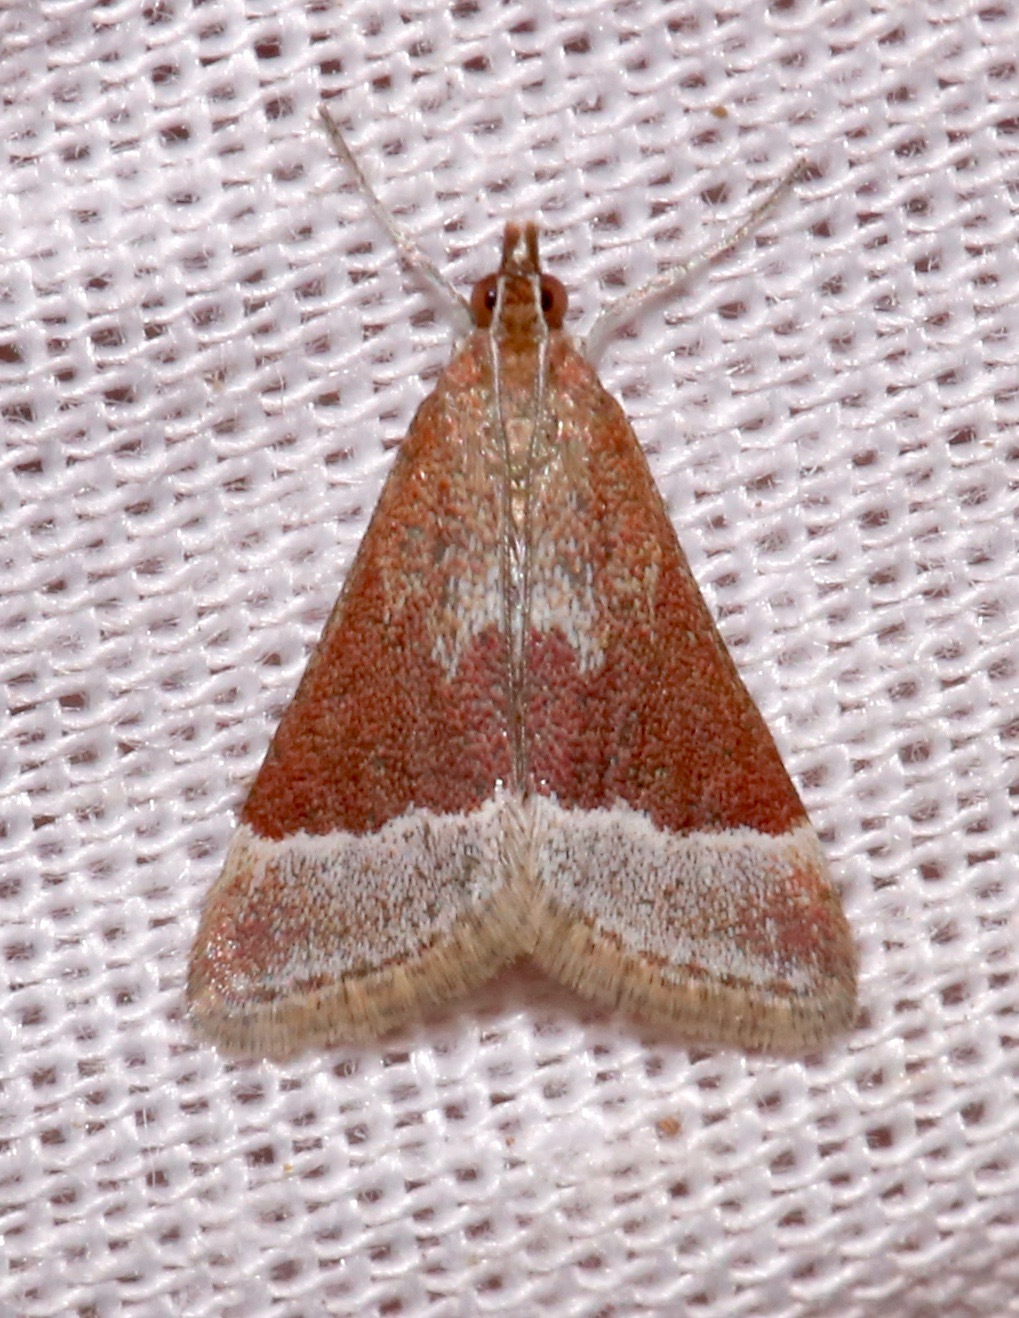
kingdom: Animalia
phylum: Arthropoda
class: Insecta
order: Lepidoptera
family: Crambidae
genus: Pyrausta
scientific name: Pyrausta lethalis
